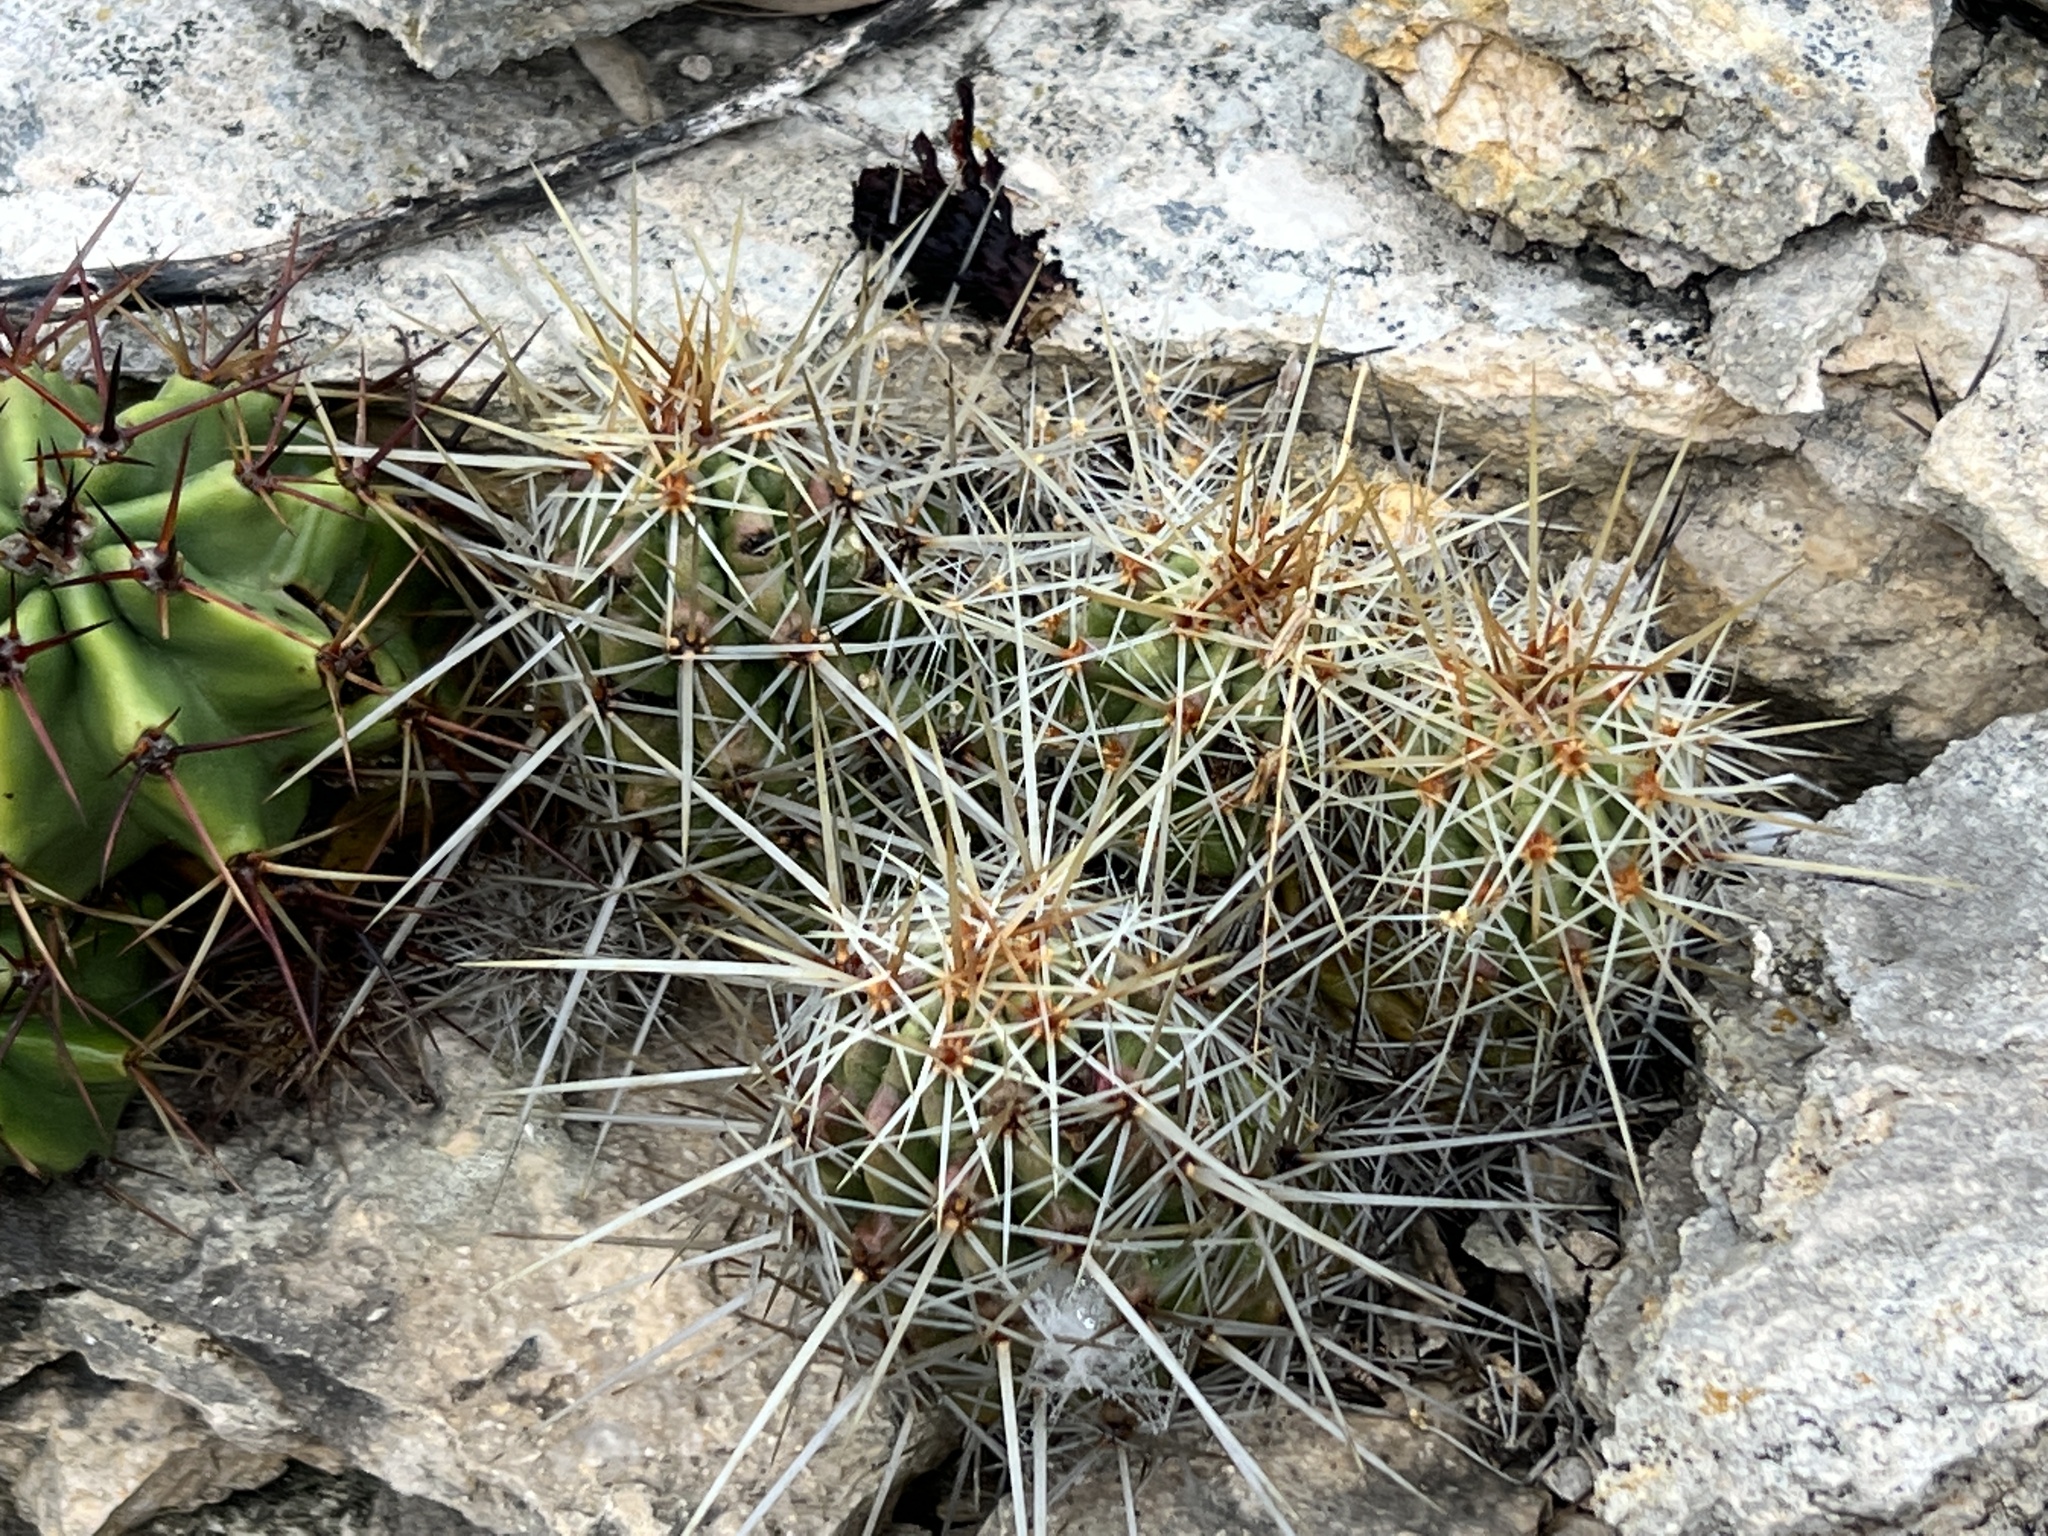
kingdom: Plantae
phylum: Tracheophyta
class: Magnoliopsida
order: Caryophyllales
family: Cactaceae
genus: Echinocereus
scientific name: Echinocereus enneacanthus
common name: Pitaya
